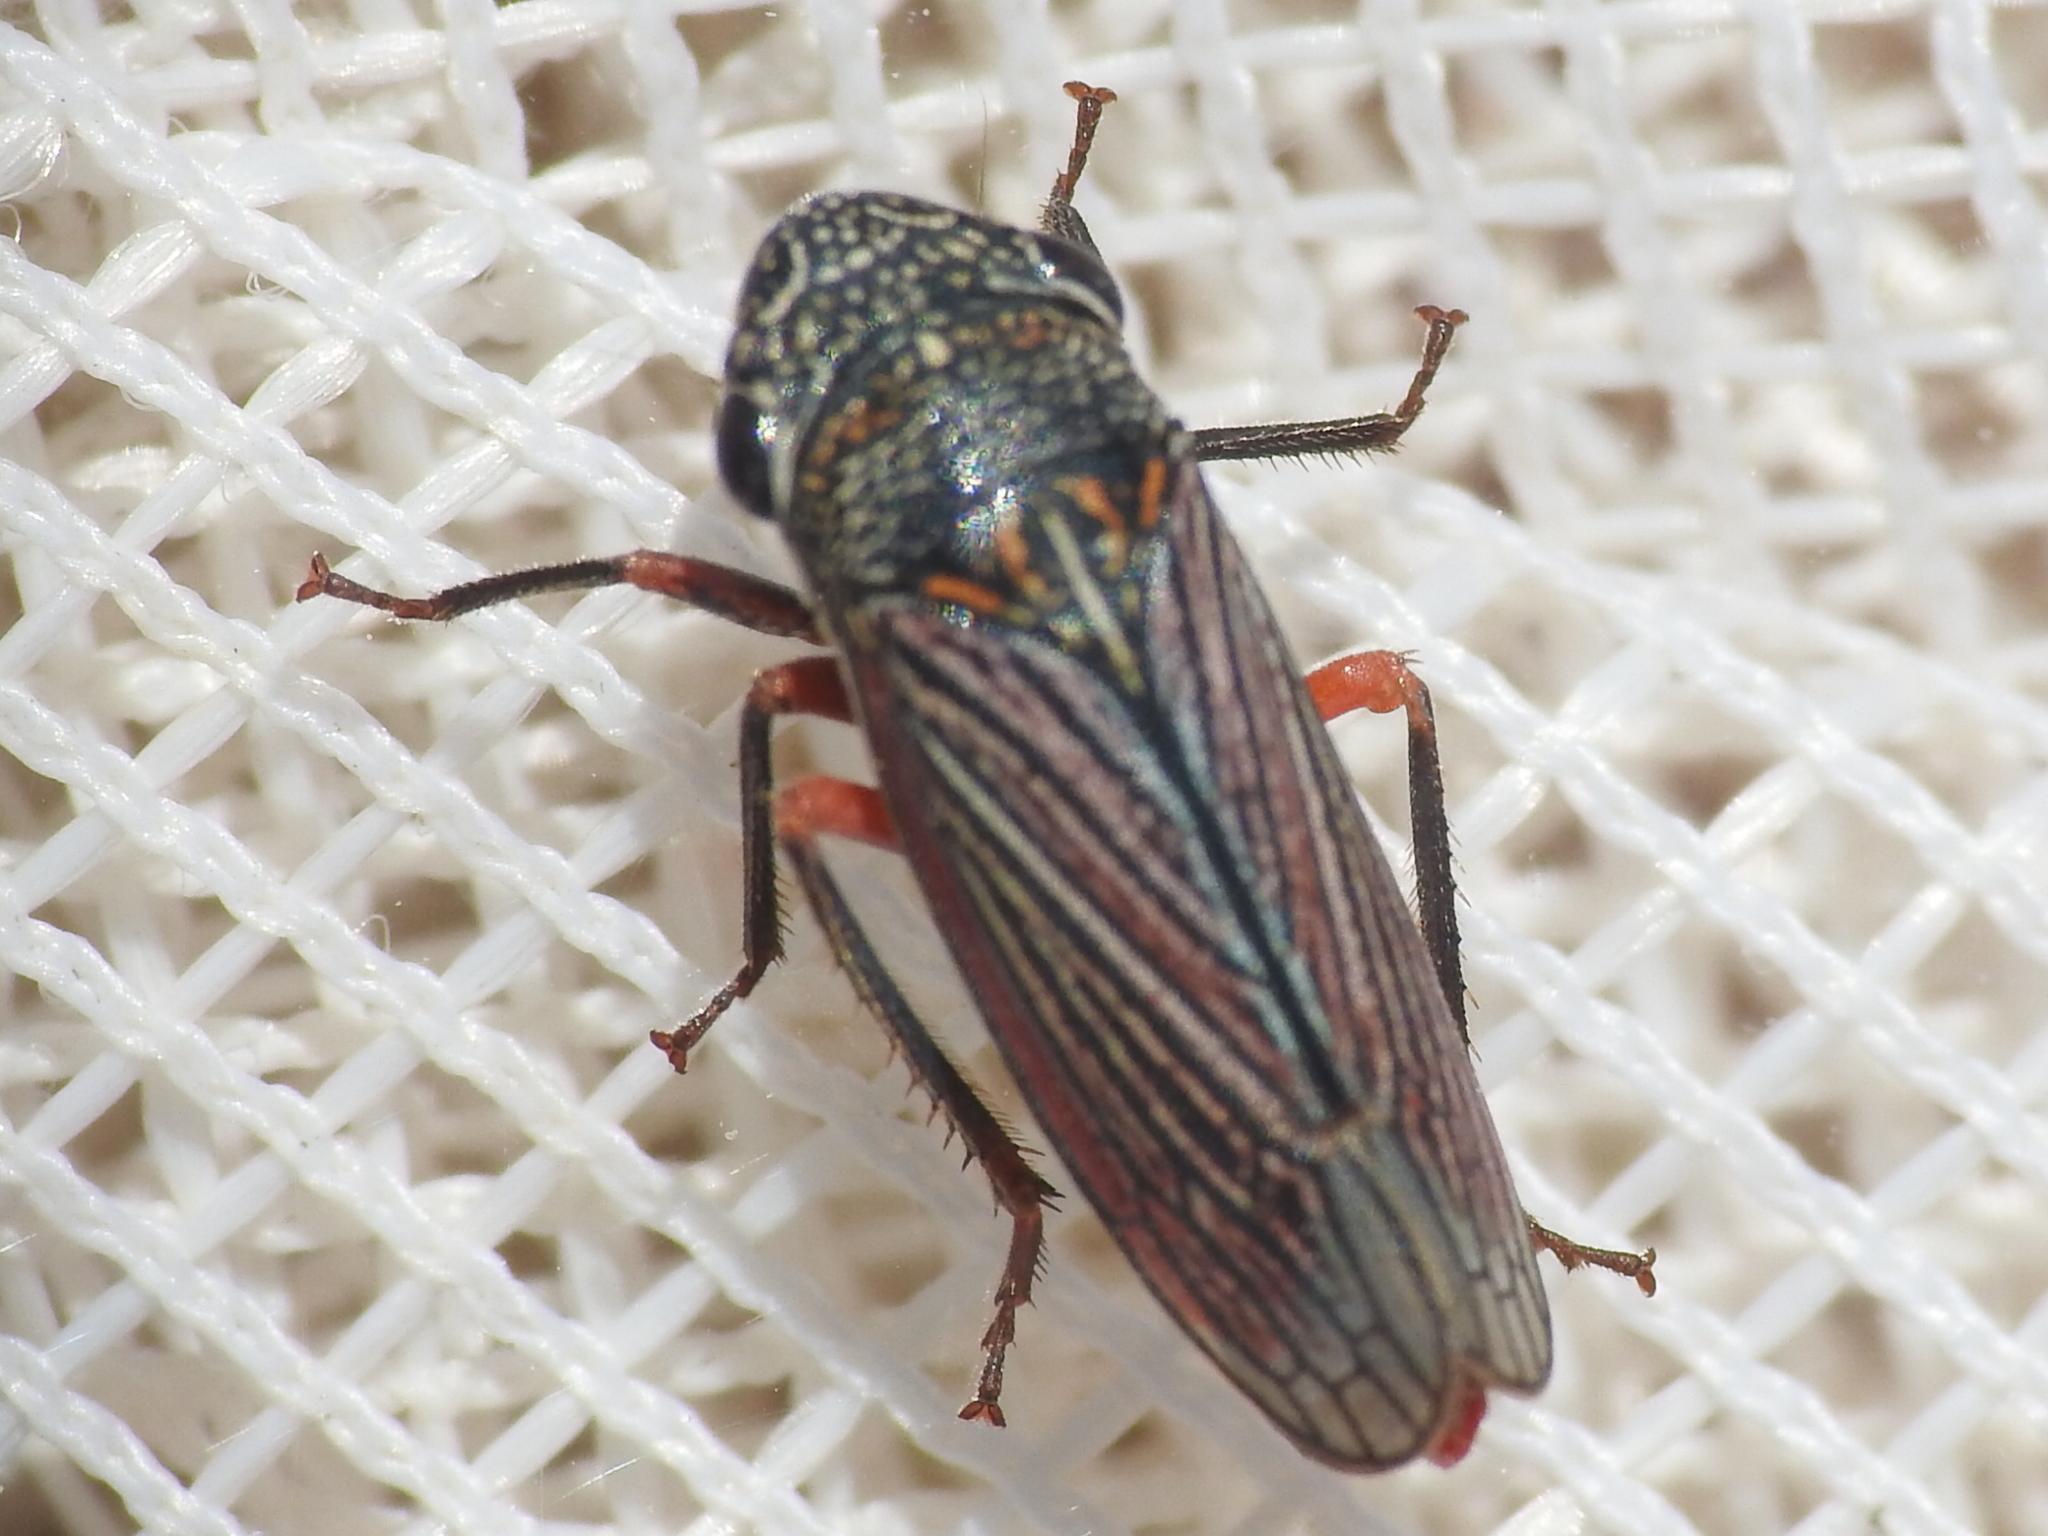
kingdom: Animalia
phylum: Arthropoda
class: Insecta
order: Hemiptera
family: Cicadellidae
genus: Cuerna
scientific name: Cuerna costalis
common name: Lateral-lined sharpshooter
